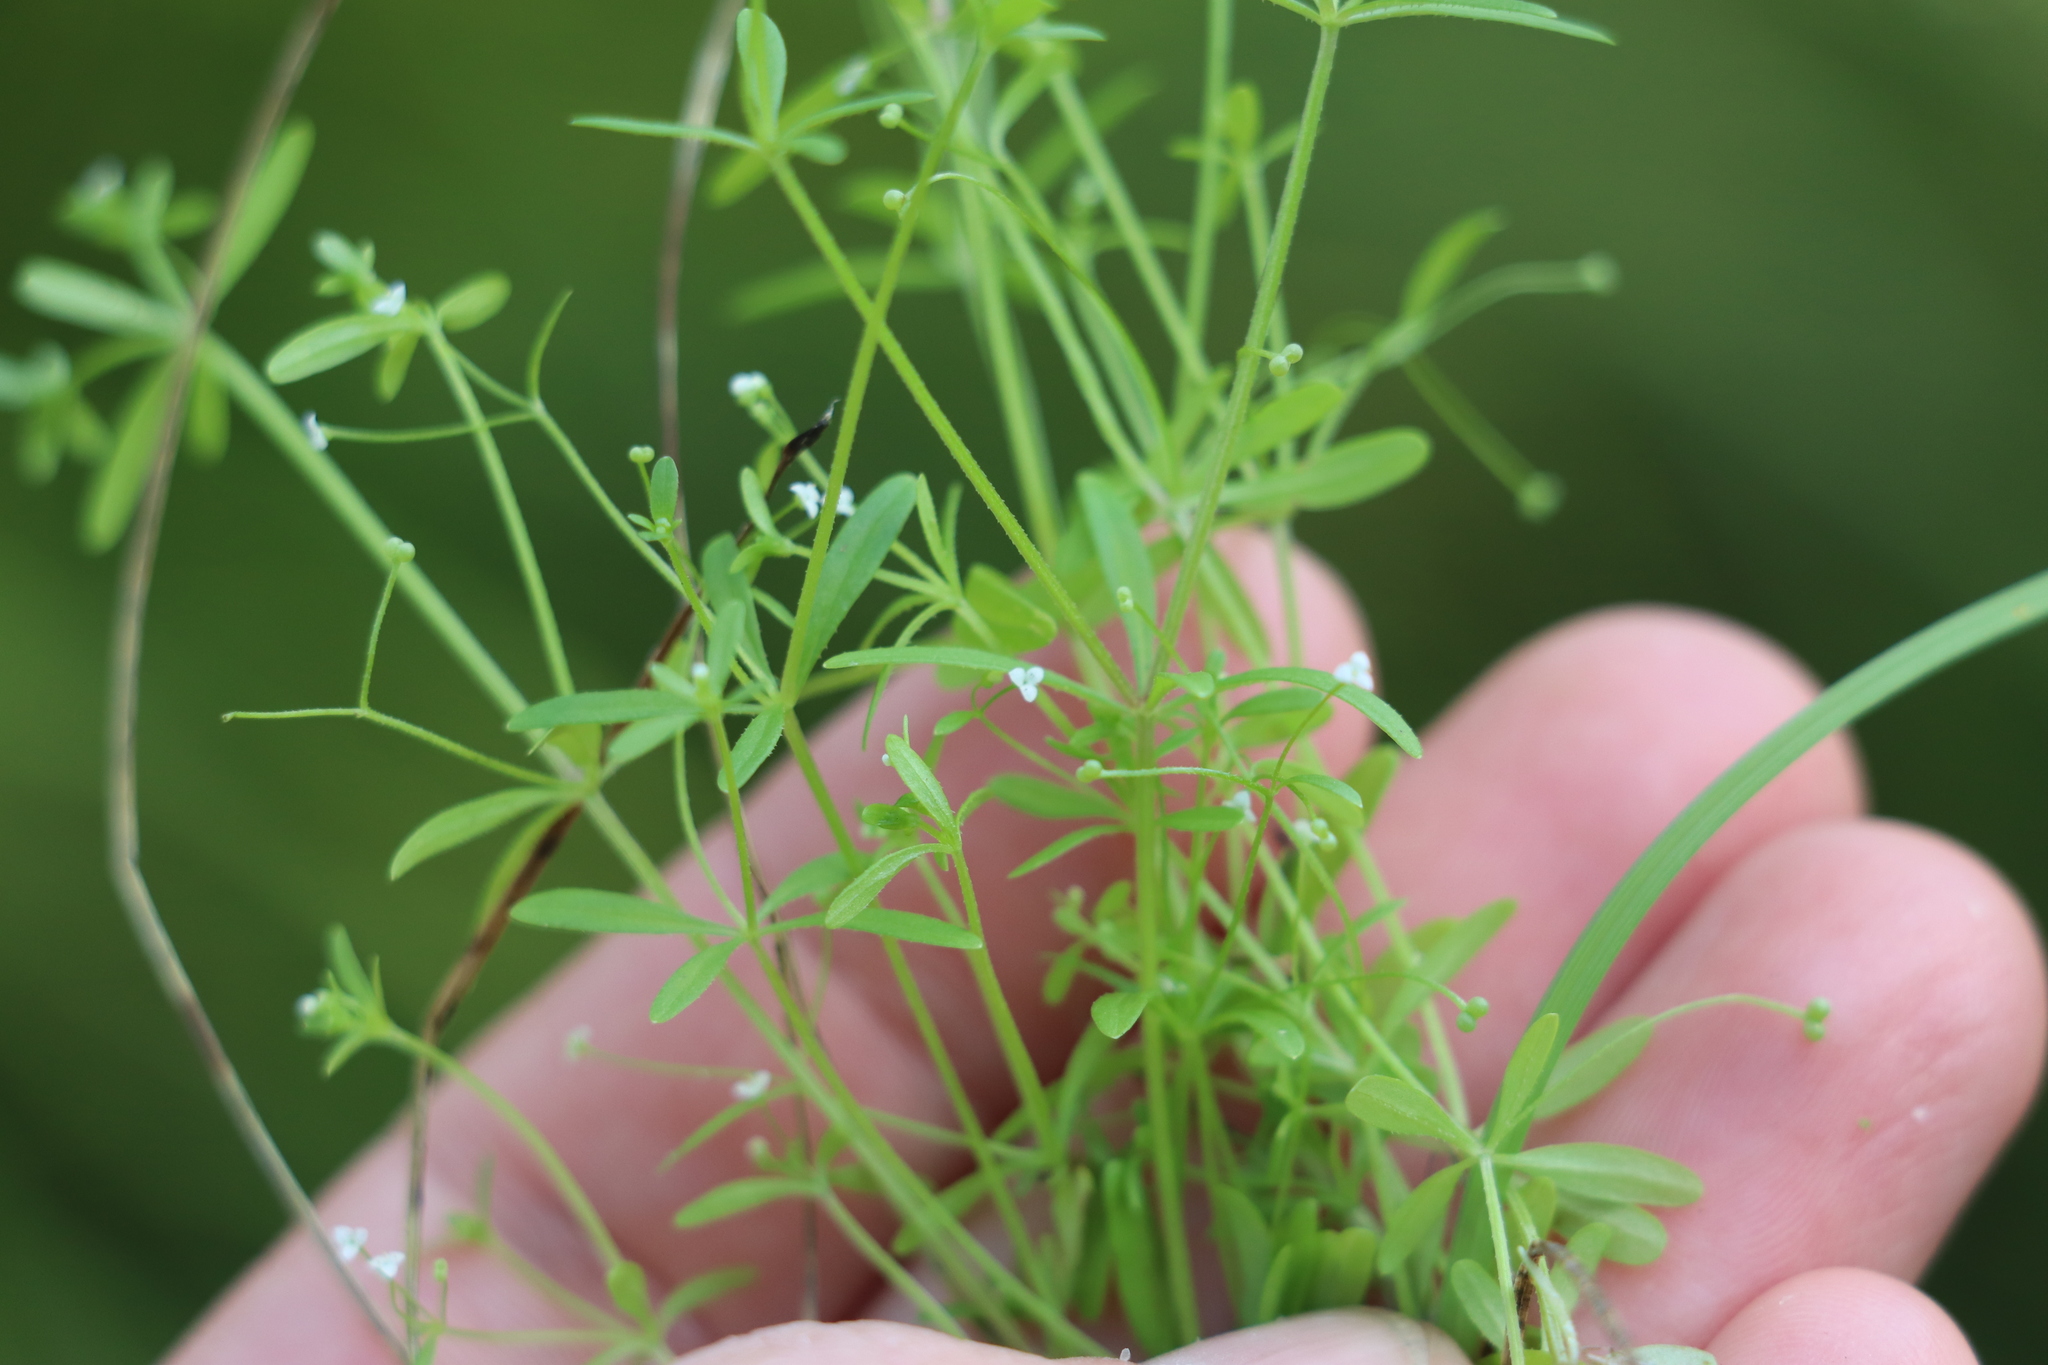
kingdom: Plantae
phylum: Tracheophyta
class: Magnoliopsida
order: Gentianales
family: Rubiaceae
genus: Galium
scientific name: Galium trifidum
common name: Small bedstraw
